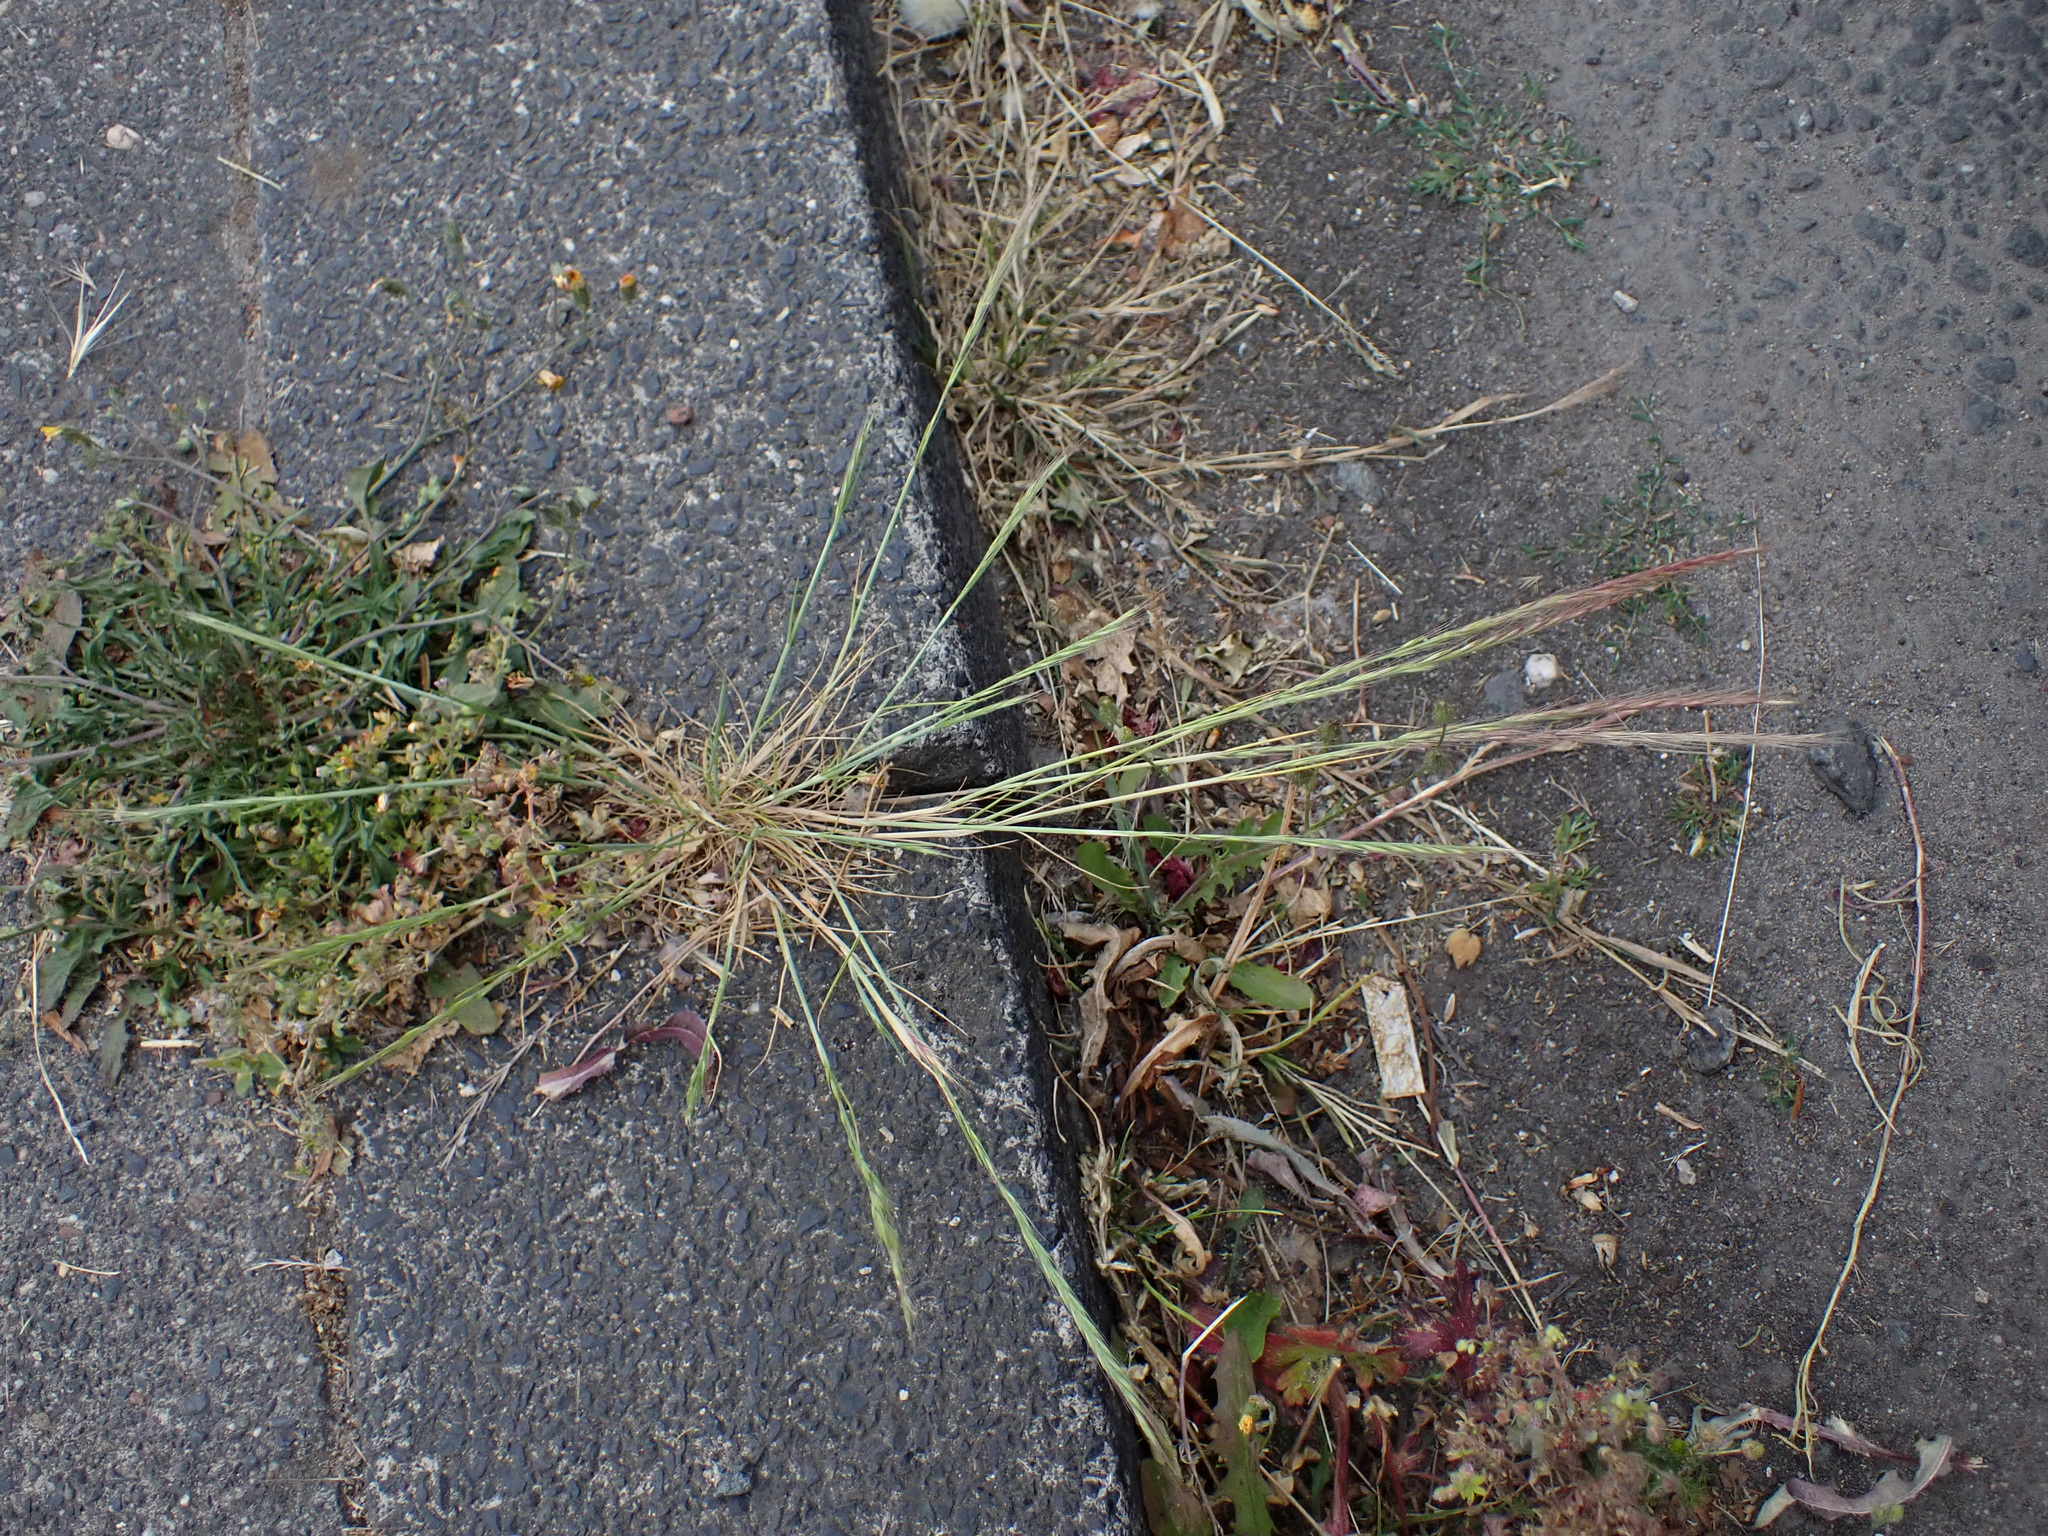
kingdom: Plantae
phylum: Tracheophyta
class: Liliopsida
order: Poales
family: Poaceae
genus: Festuca
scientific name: Festuca myuros
